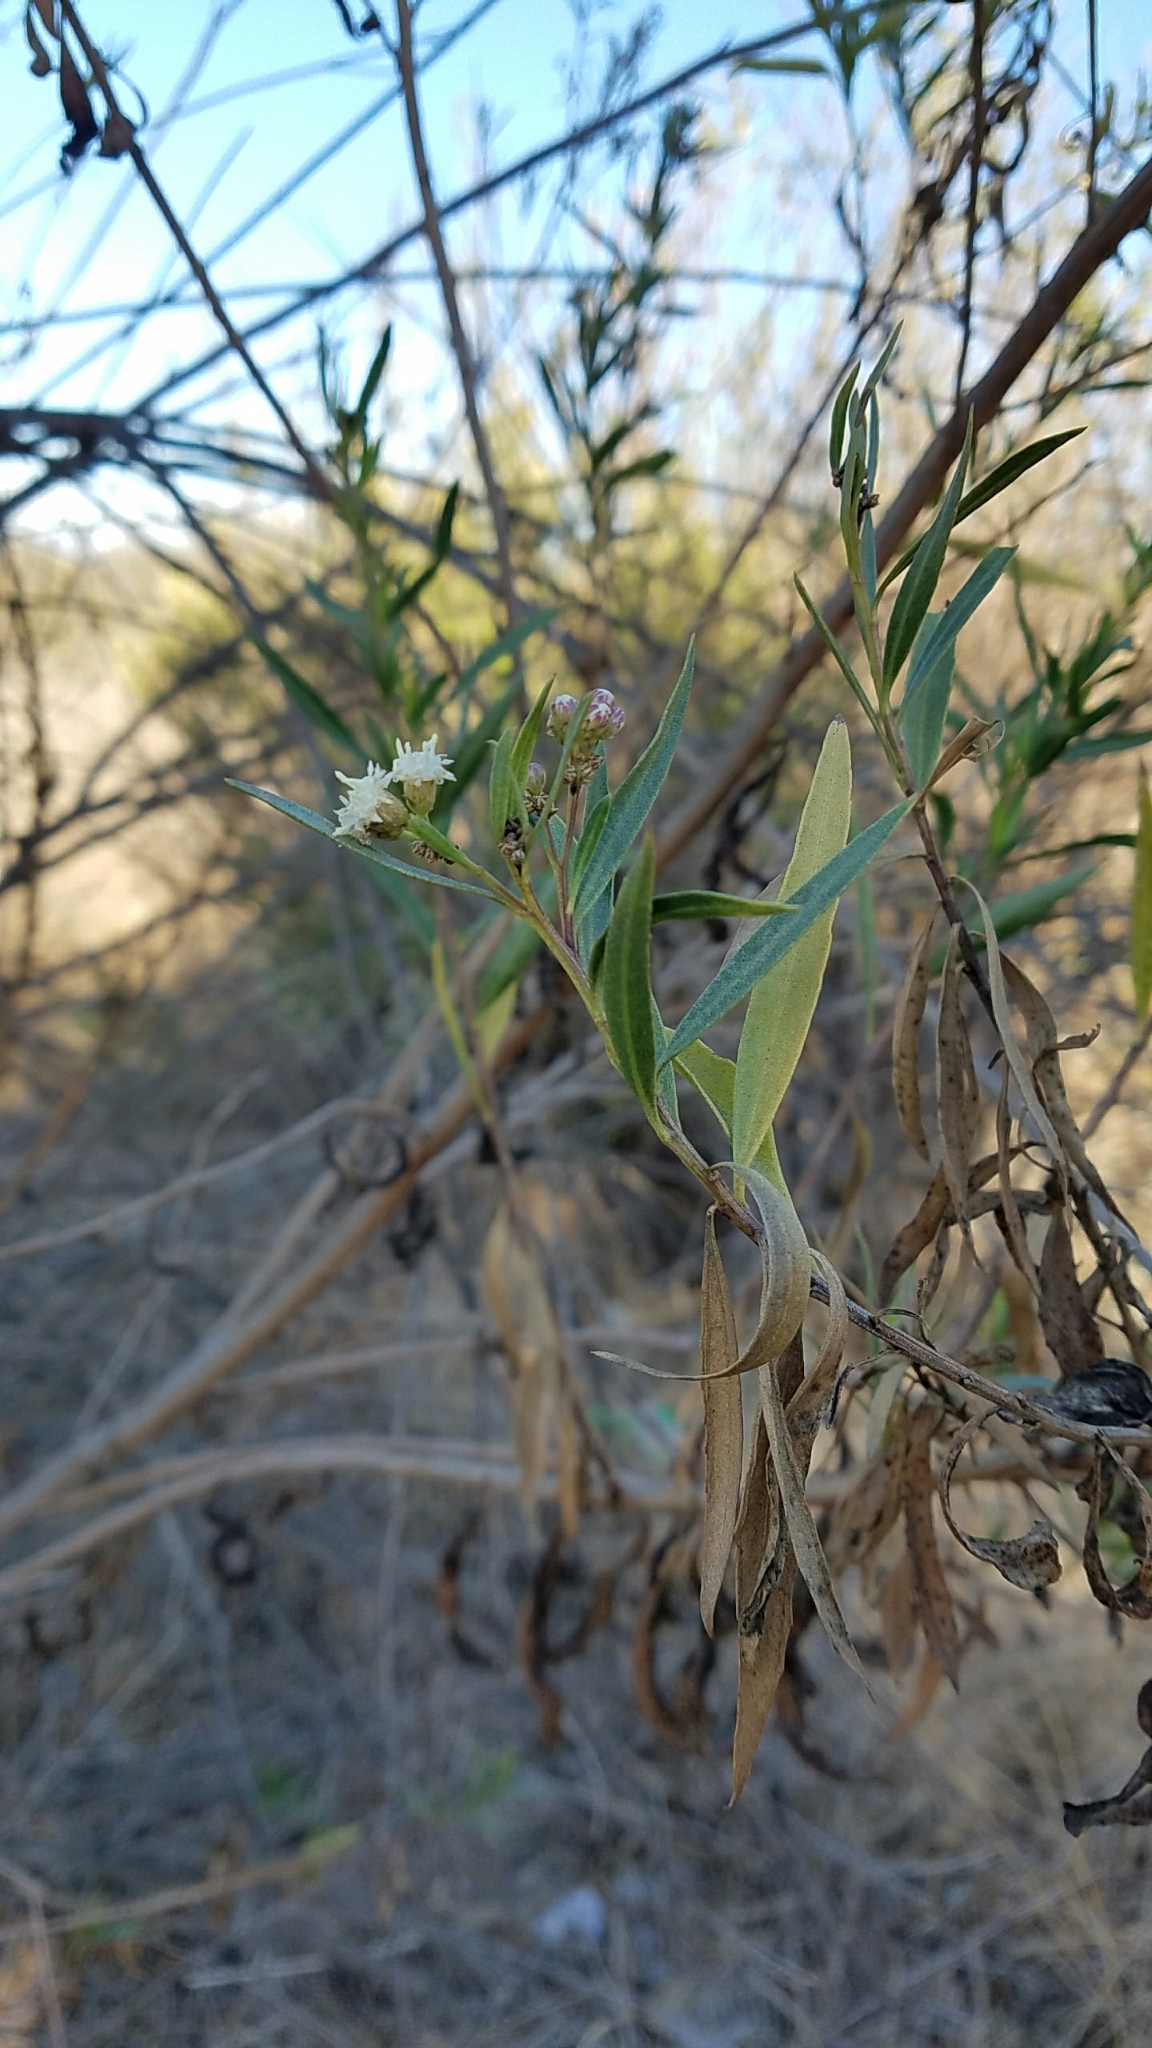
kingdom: Plantae
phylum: Tracheophyta
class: Magnoliopsida
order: Asterales
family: Asteraceae
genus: Baccharis
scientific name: Baccharis salicifolia
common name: Sticky baccharis
